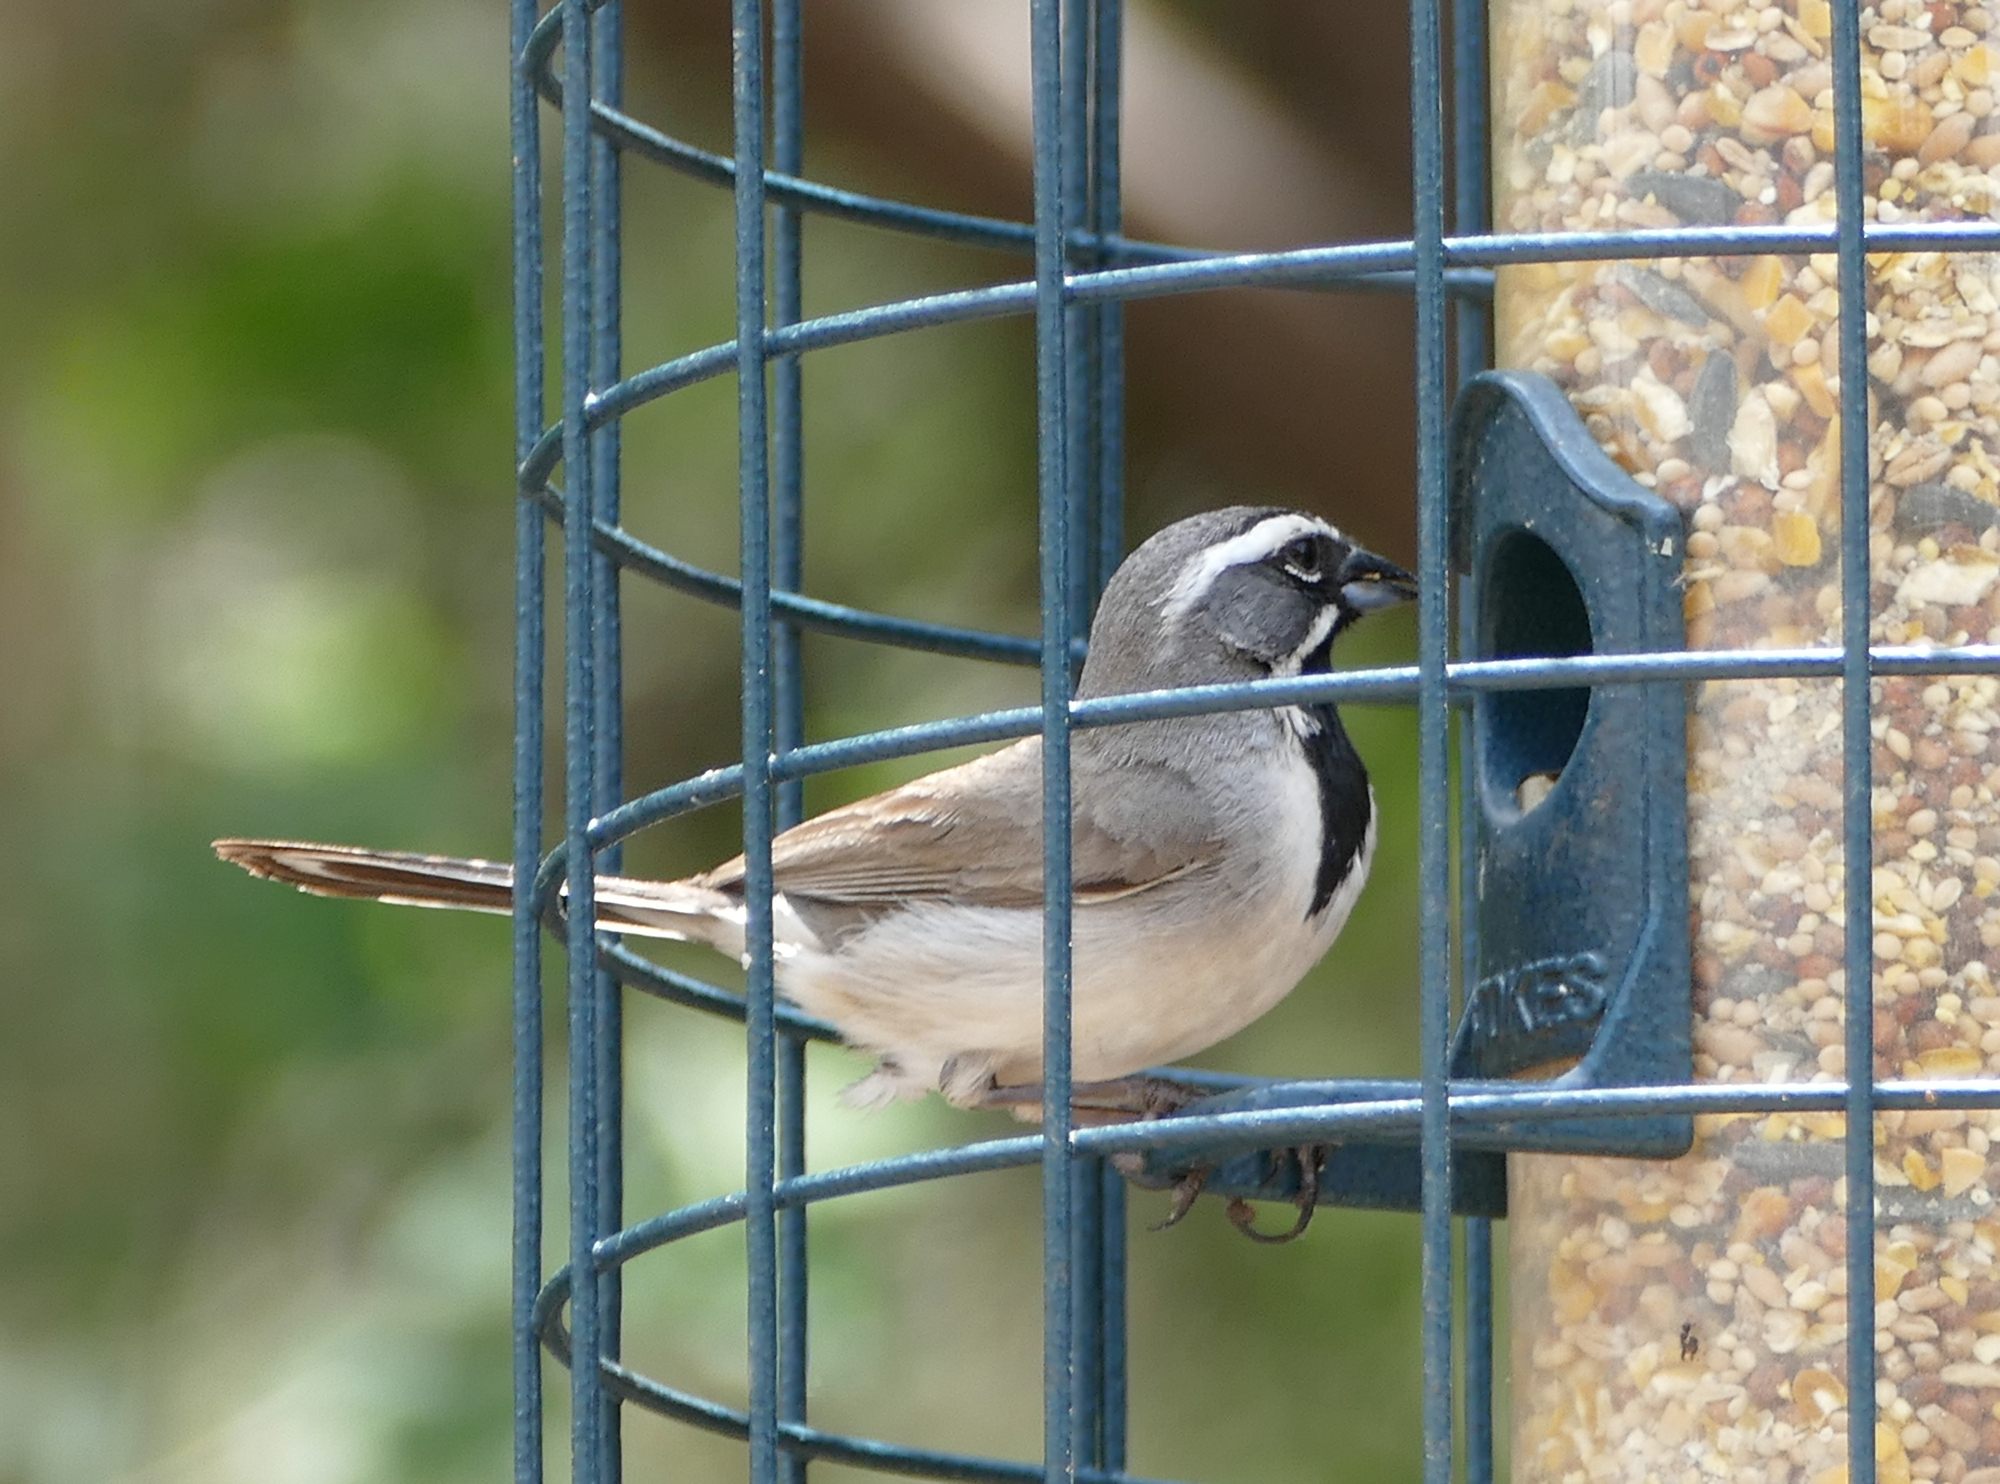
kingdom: Animalia
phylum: Chordata
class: Aves
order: Passeriformes
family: Passerellidae
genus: Amphispiza
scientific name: Amphispiza bilineata
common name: Black-throated sparrow
